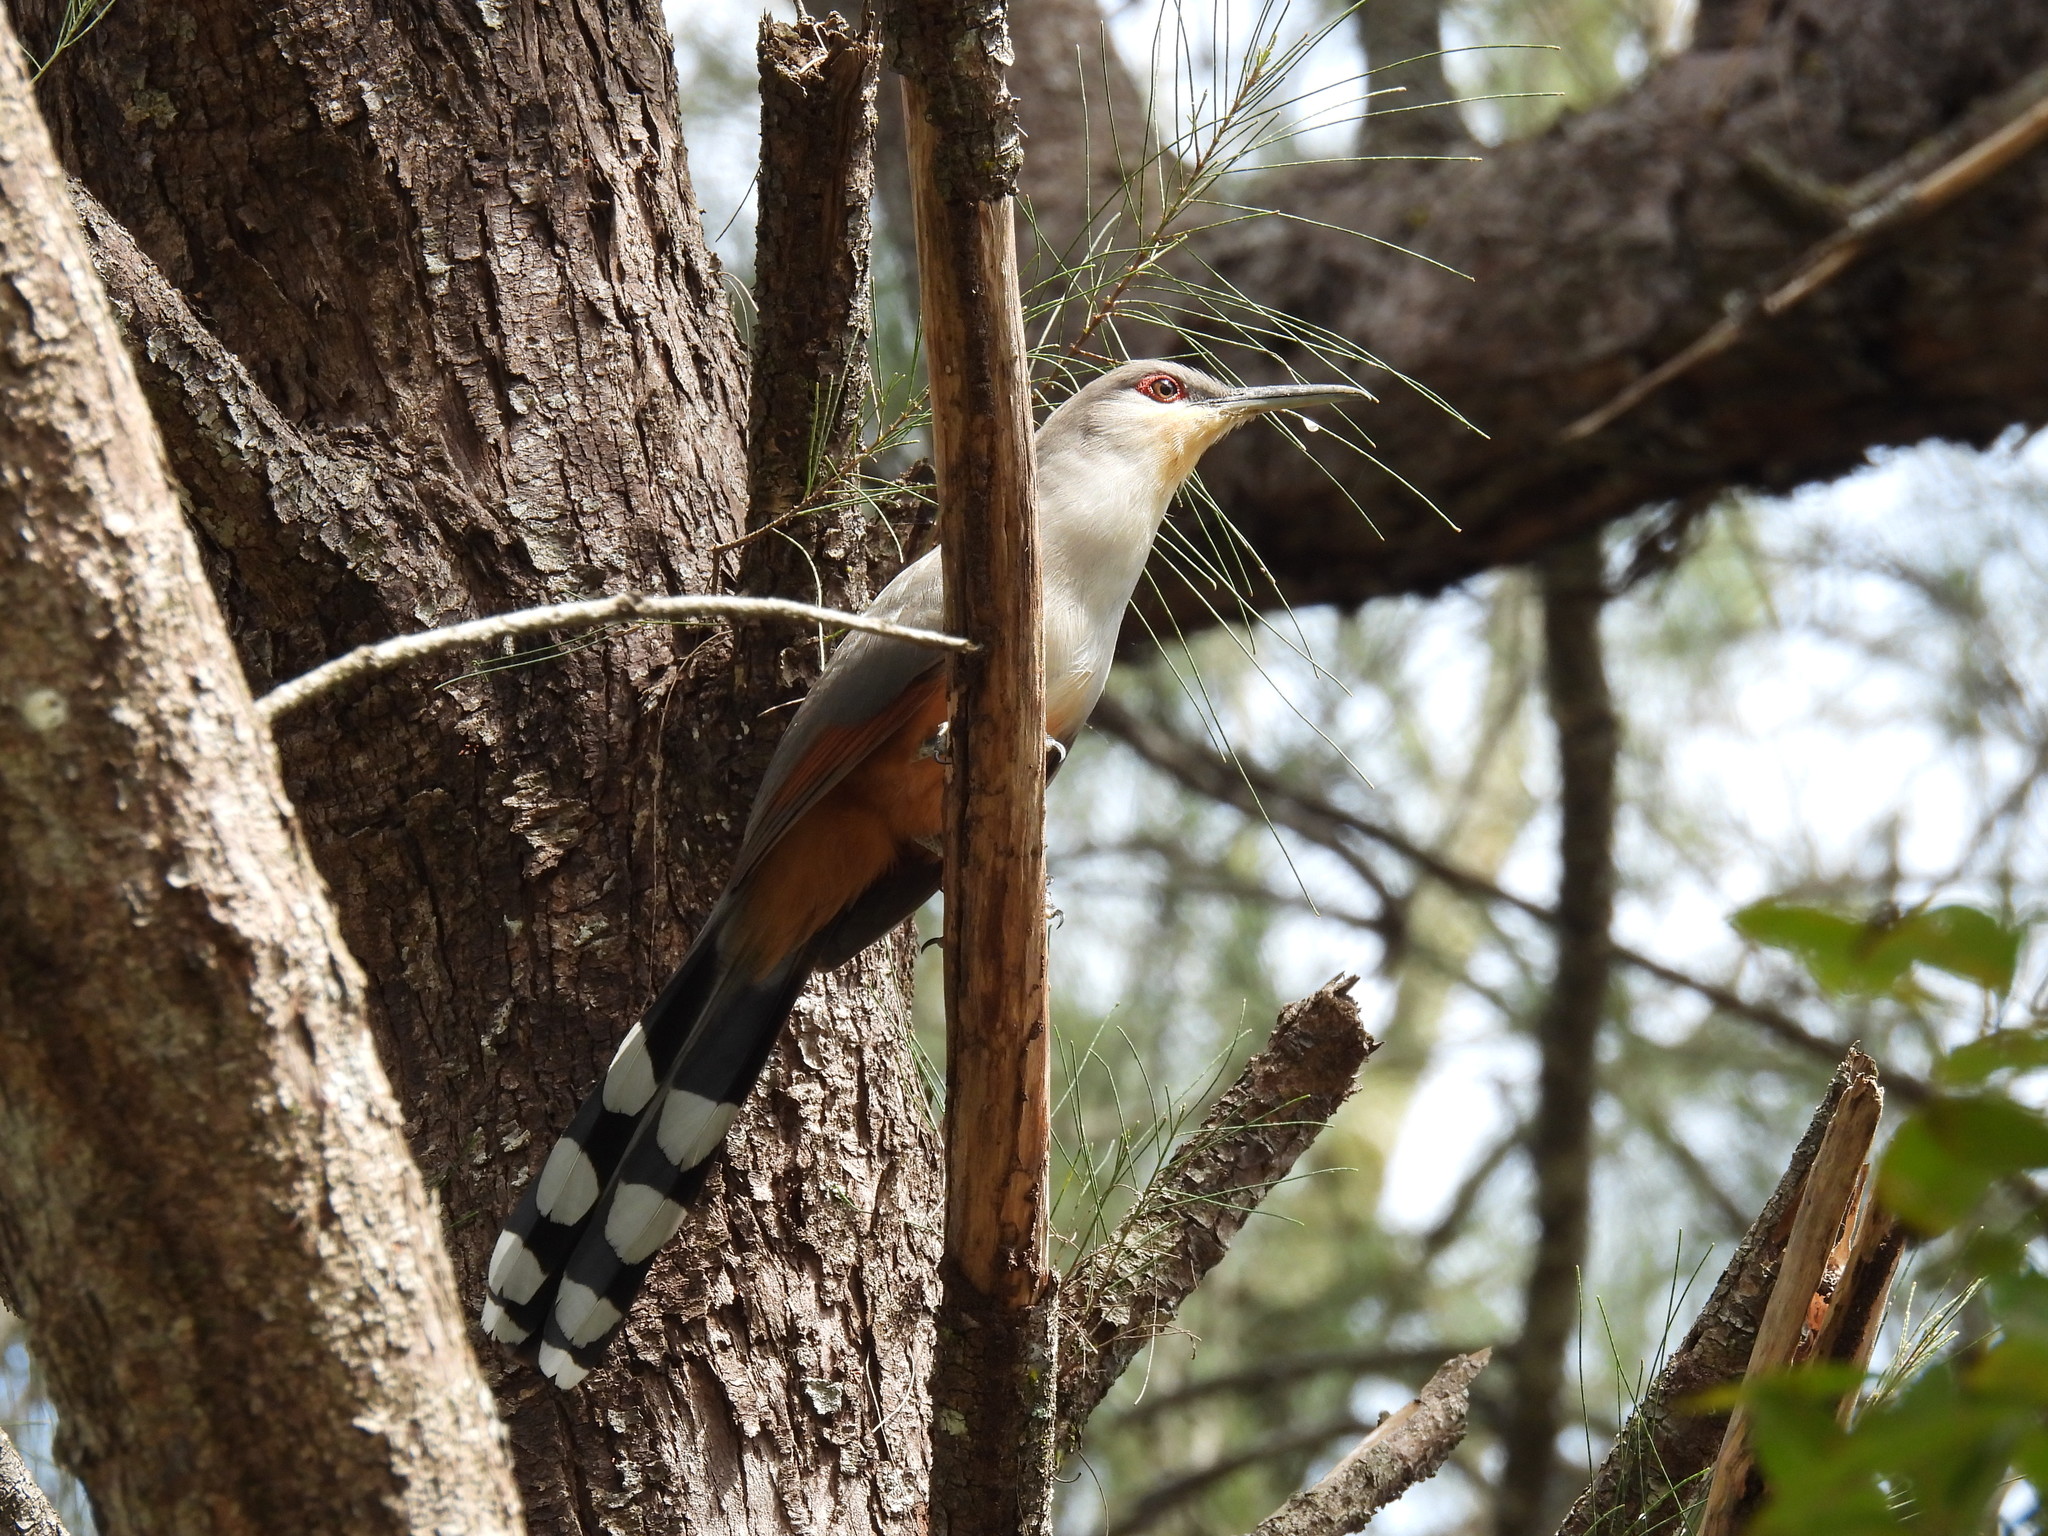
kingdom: Animalia
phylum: Chordata
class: Aves
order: Cuculiformes
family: Cuculidae
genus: Saurothera
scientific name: Saurothera longirostris
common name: Hispaniolan lizard-cuckoo
